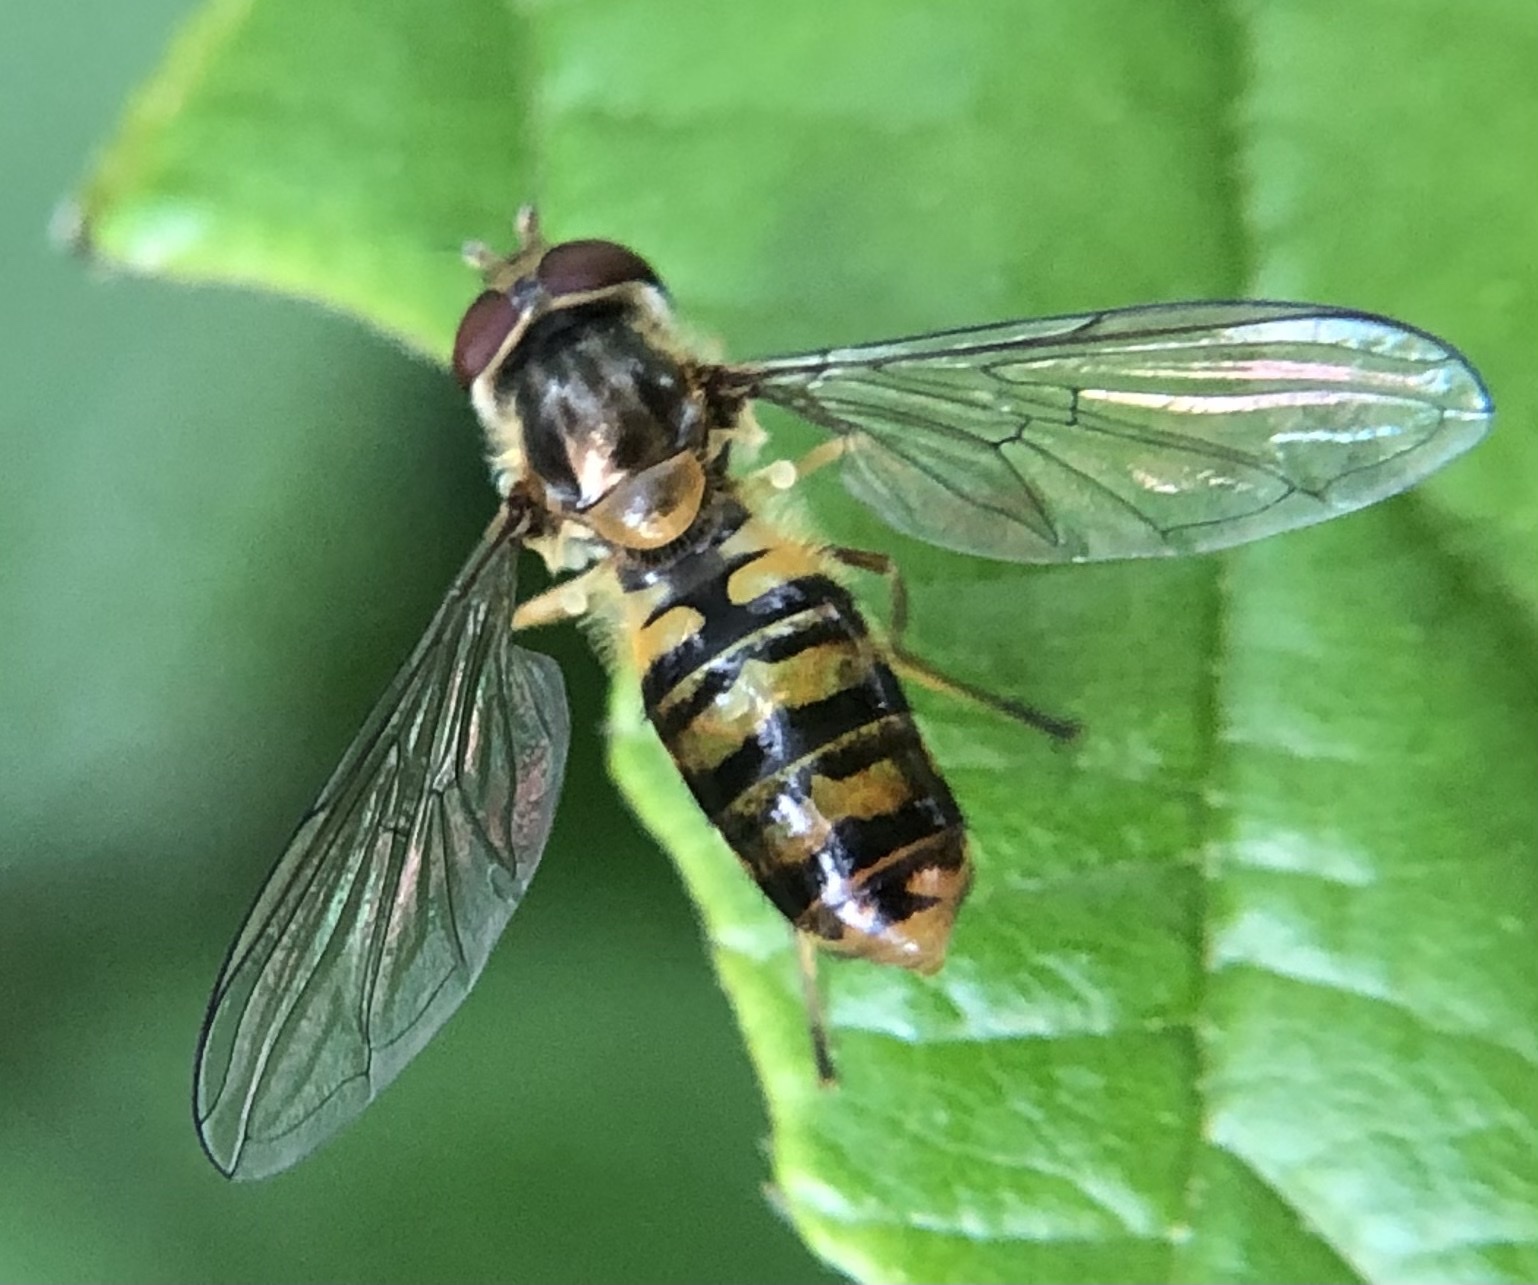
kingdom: Animalia
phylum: Arthropoda
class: Insecta
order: Diptera
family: Syrphidae
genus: Episyrphus
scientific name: Episyrphus balteatus
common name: Marmalade hoverfly
